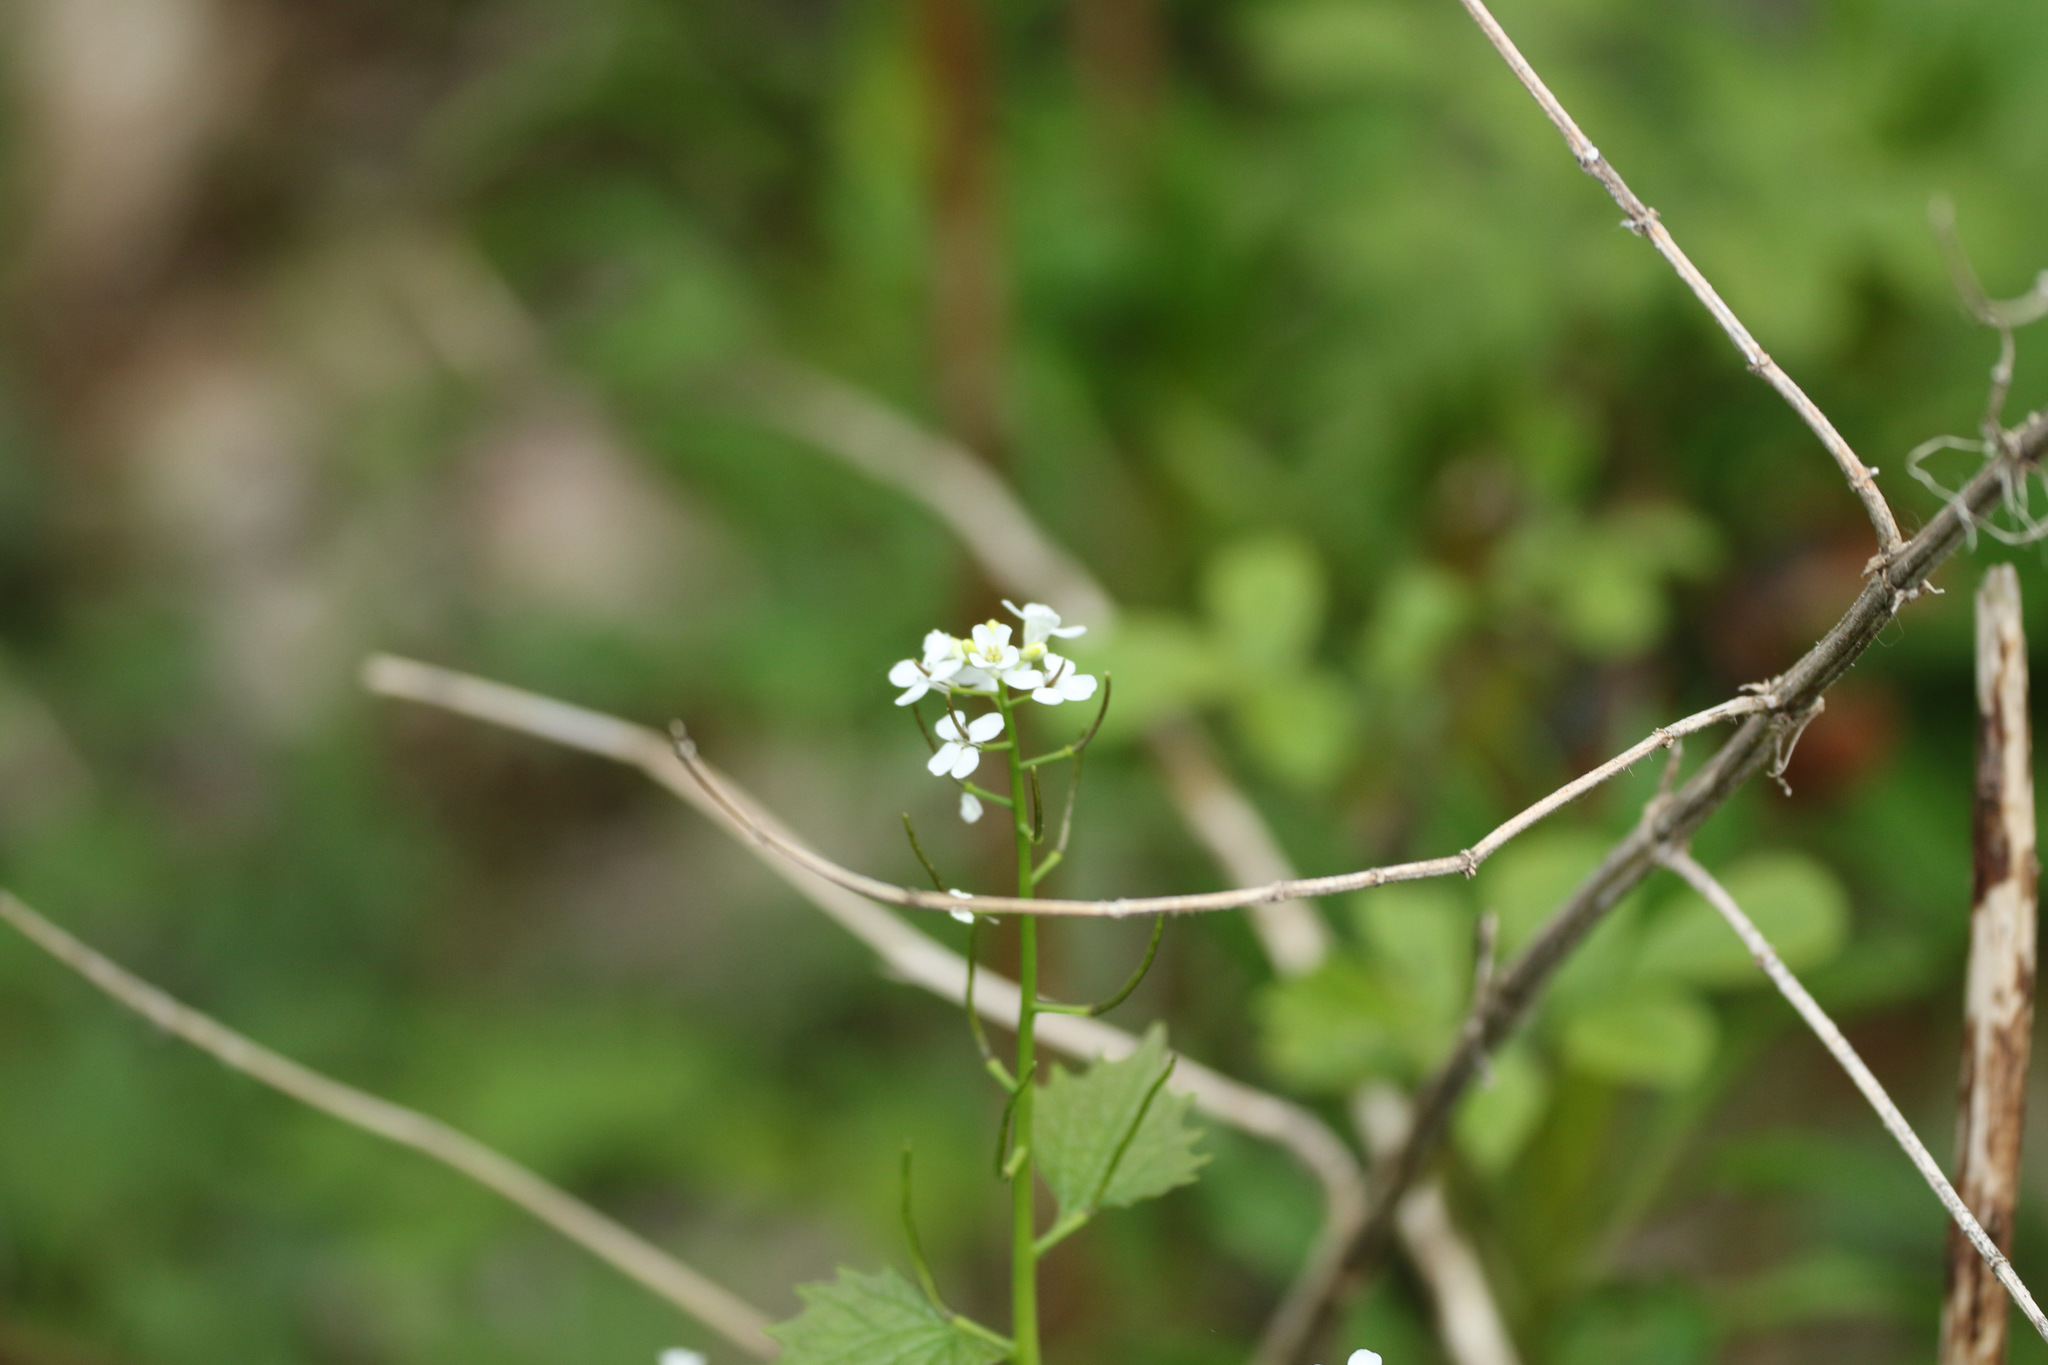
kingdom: Plantae
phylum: Tracheophyta
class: Magnoliopsida
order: Brassicales
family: Brassicaceae
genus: Alliaria
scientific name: Alliaria petiolata
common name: Garlic mustard
